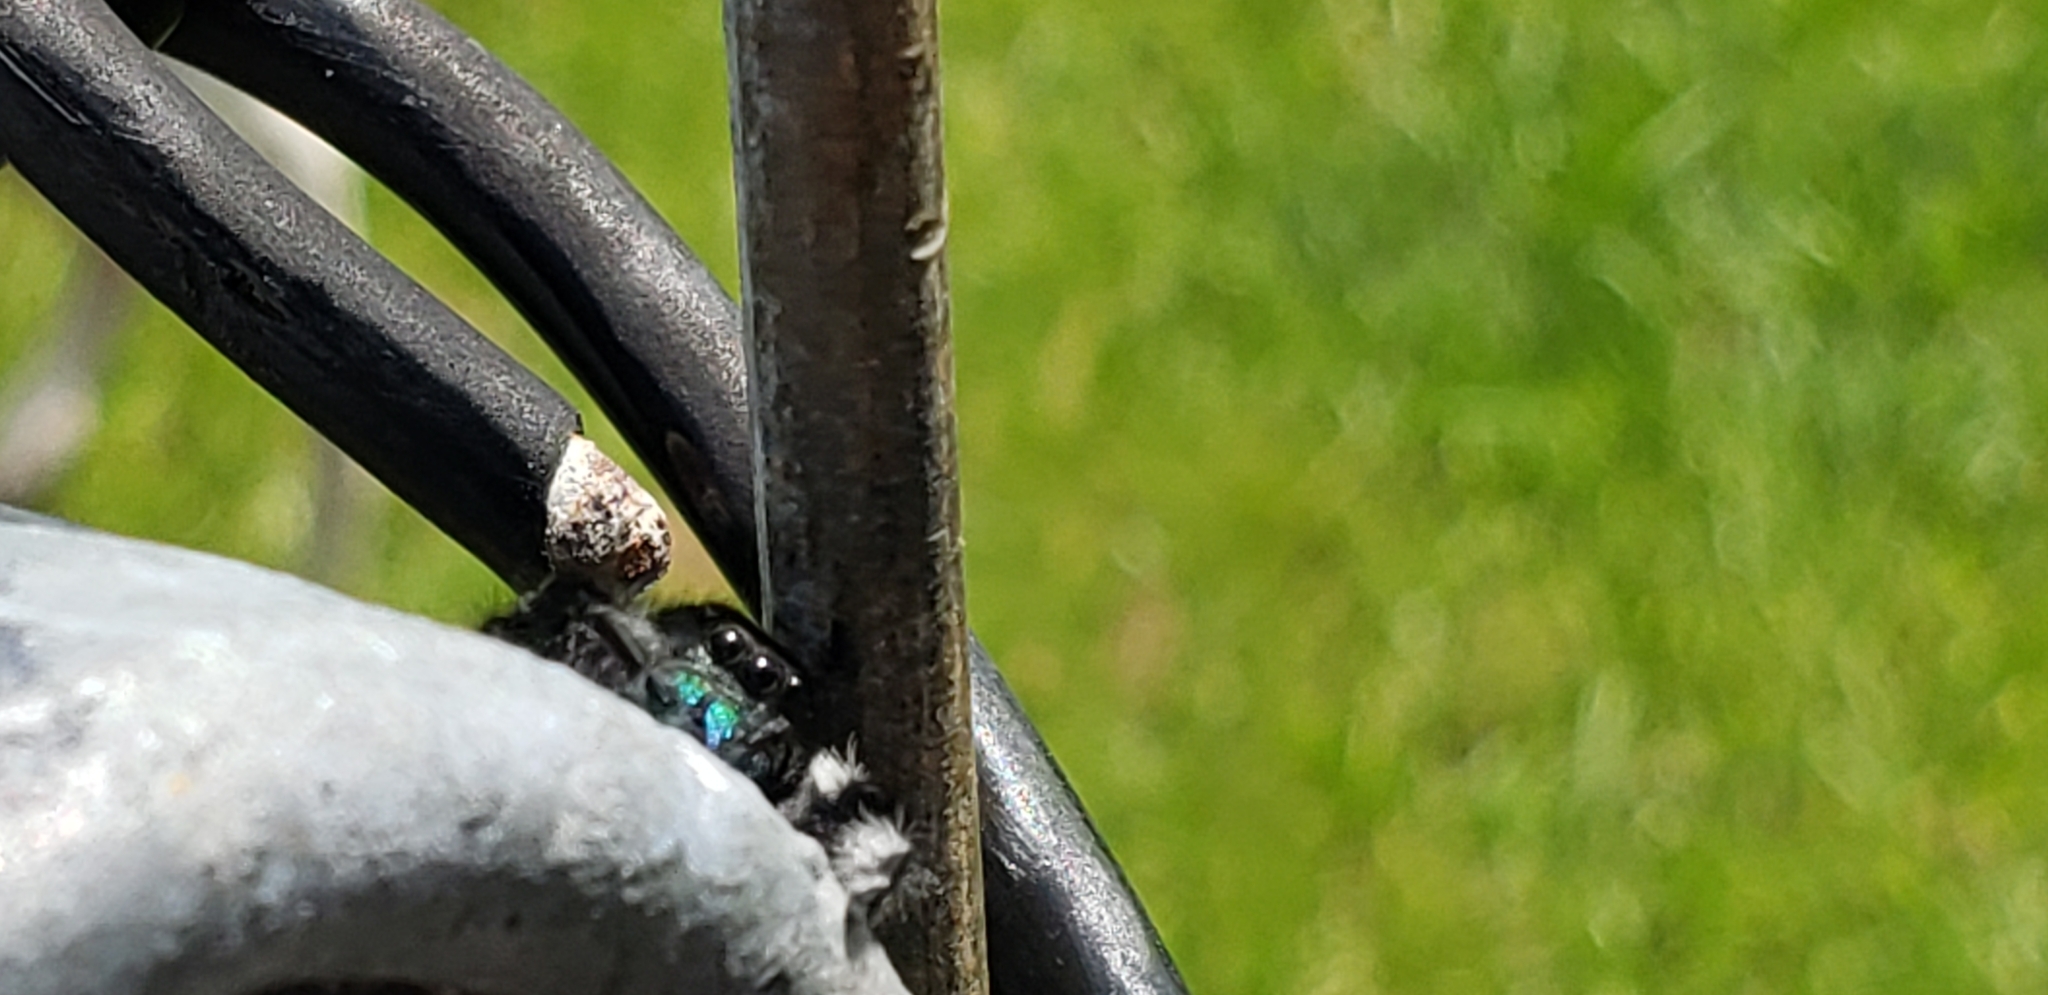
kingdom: Animalia
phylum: Arthropoda
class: Arachnida
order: Araneae
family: Salticidae
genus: Phidippus
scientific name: Phidippus regius
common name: Regal jumper
